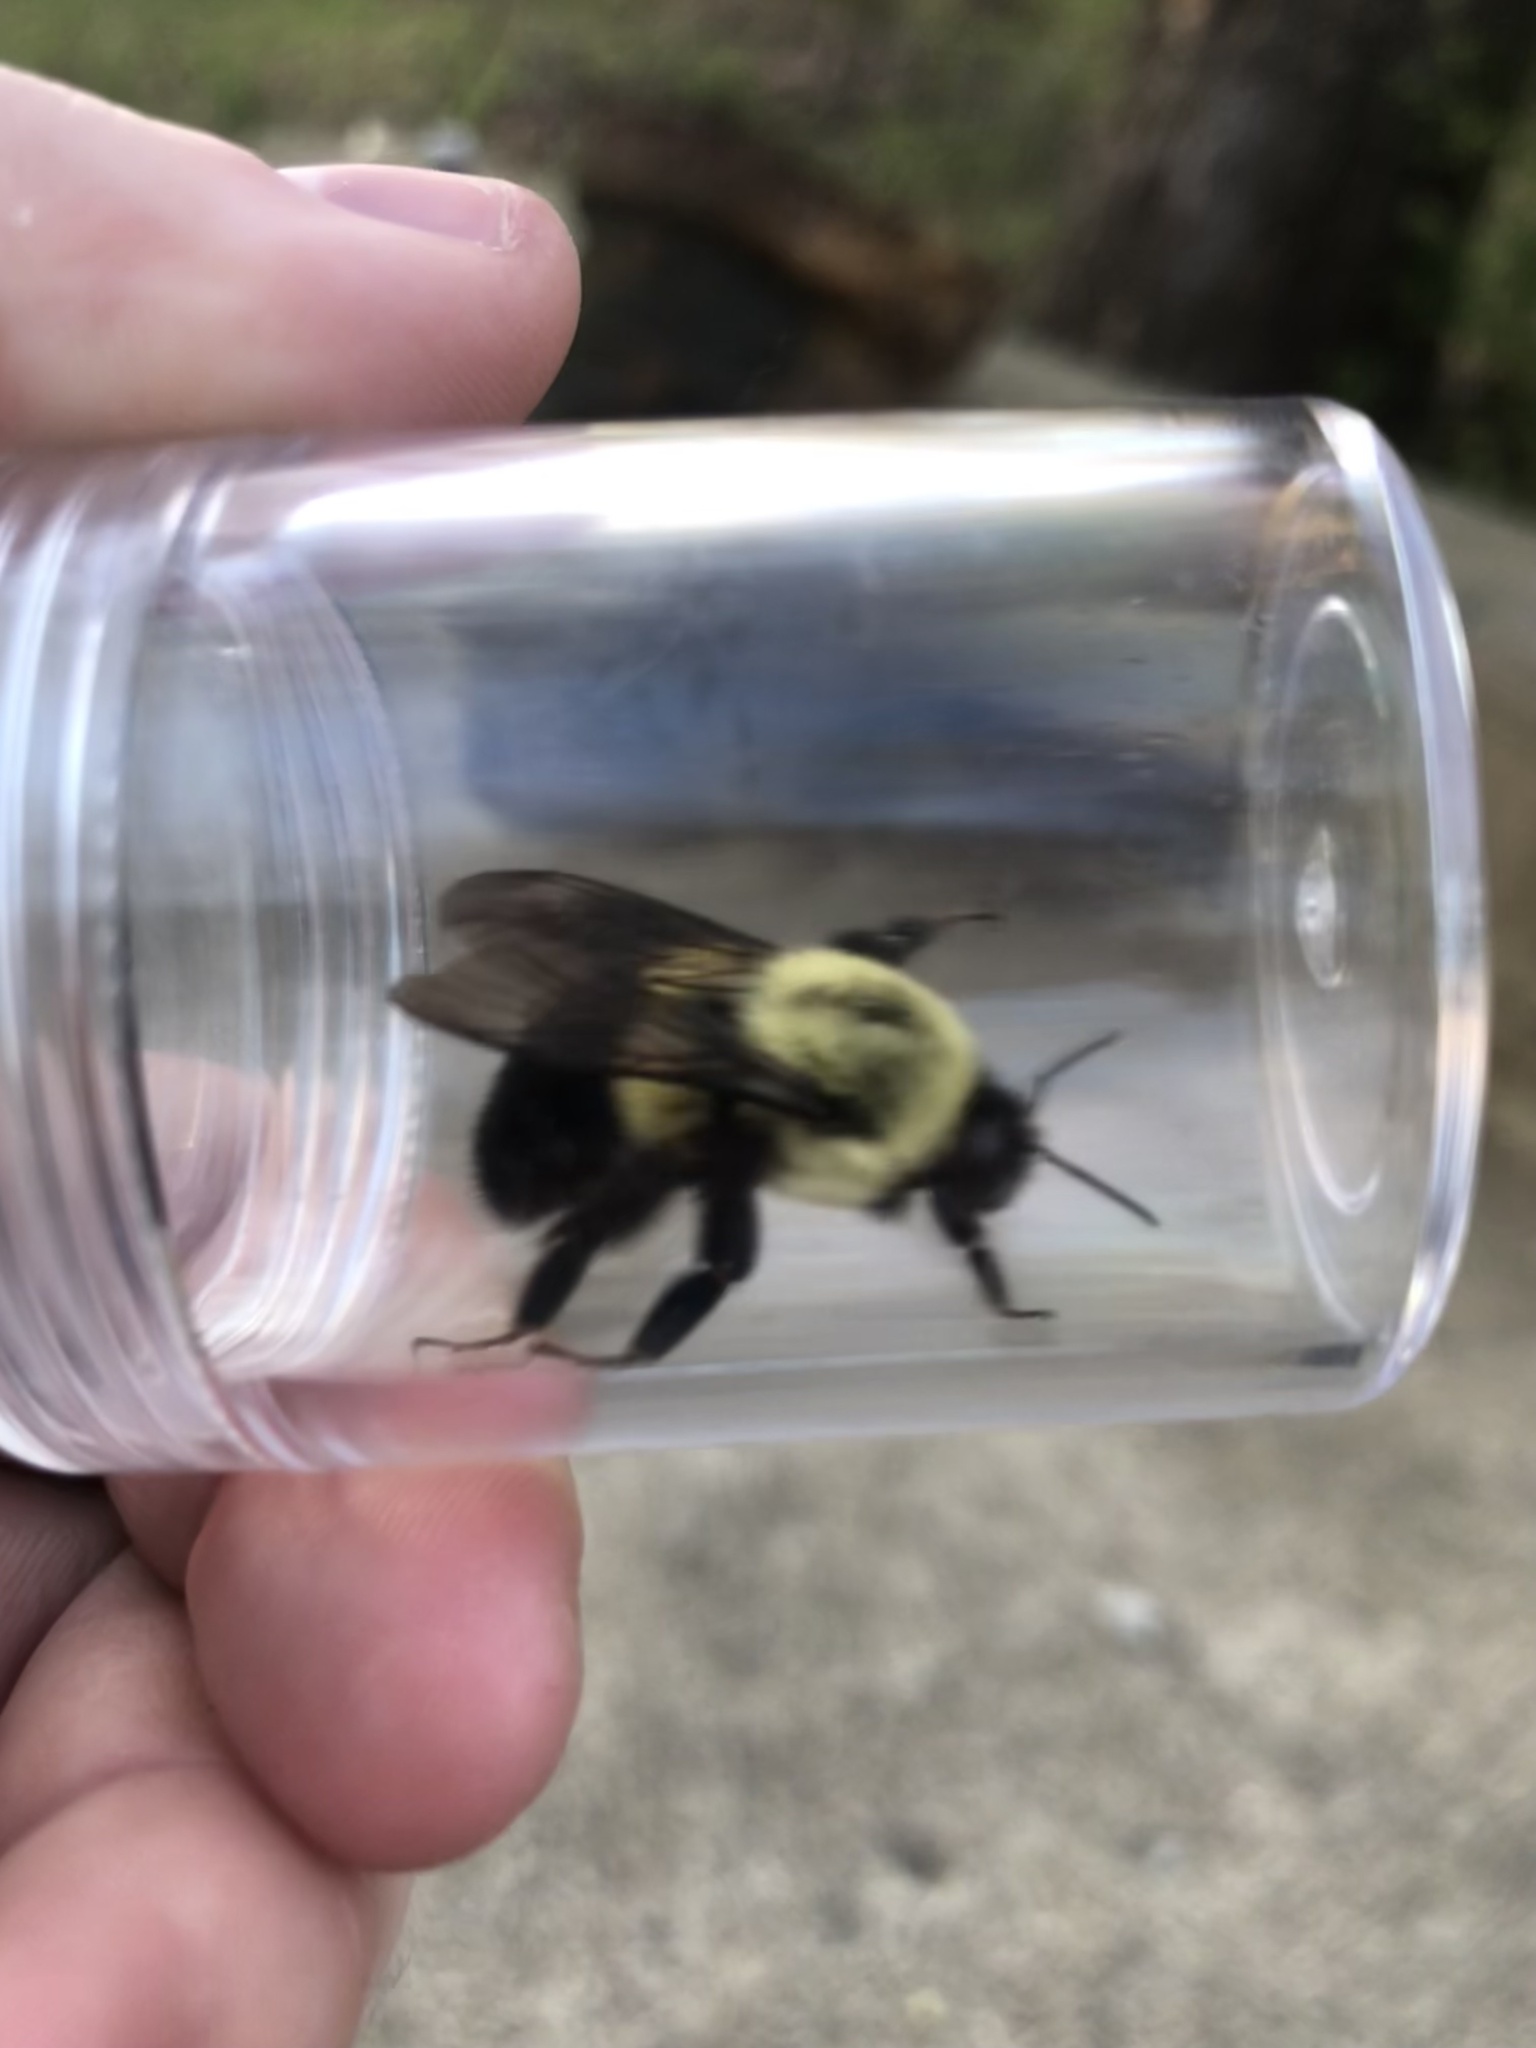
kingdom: Animalia
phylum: Arthropoda
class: Insecta
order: Hymenoptera
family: Apidae
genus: Bombus
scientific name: Bombus impatiens
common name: Common eastern bumble bee
